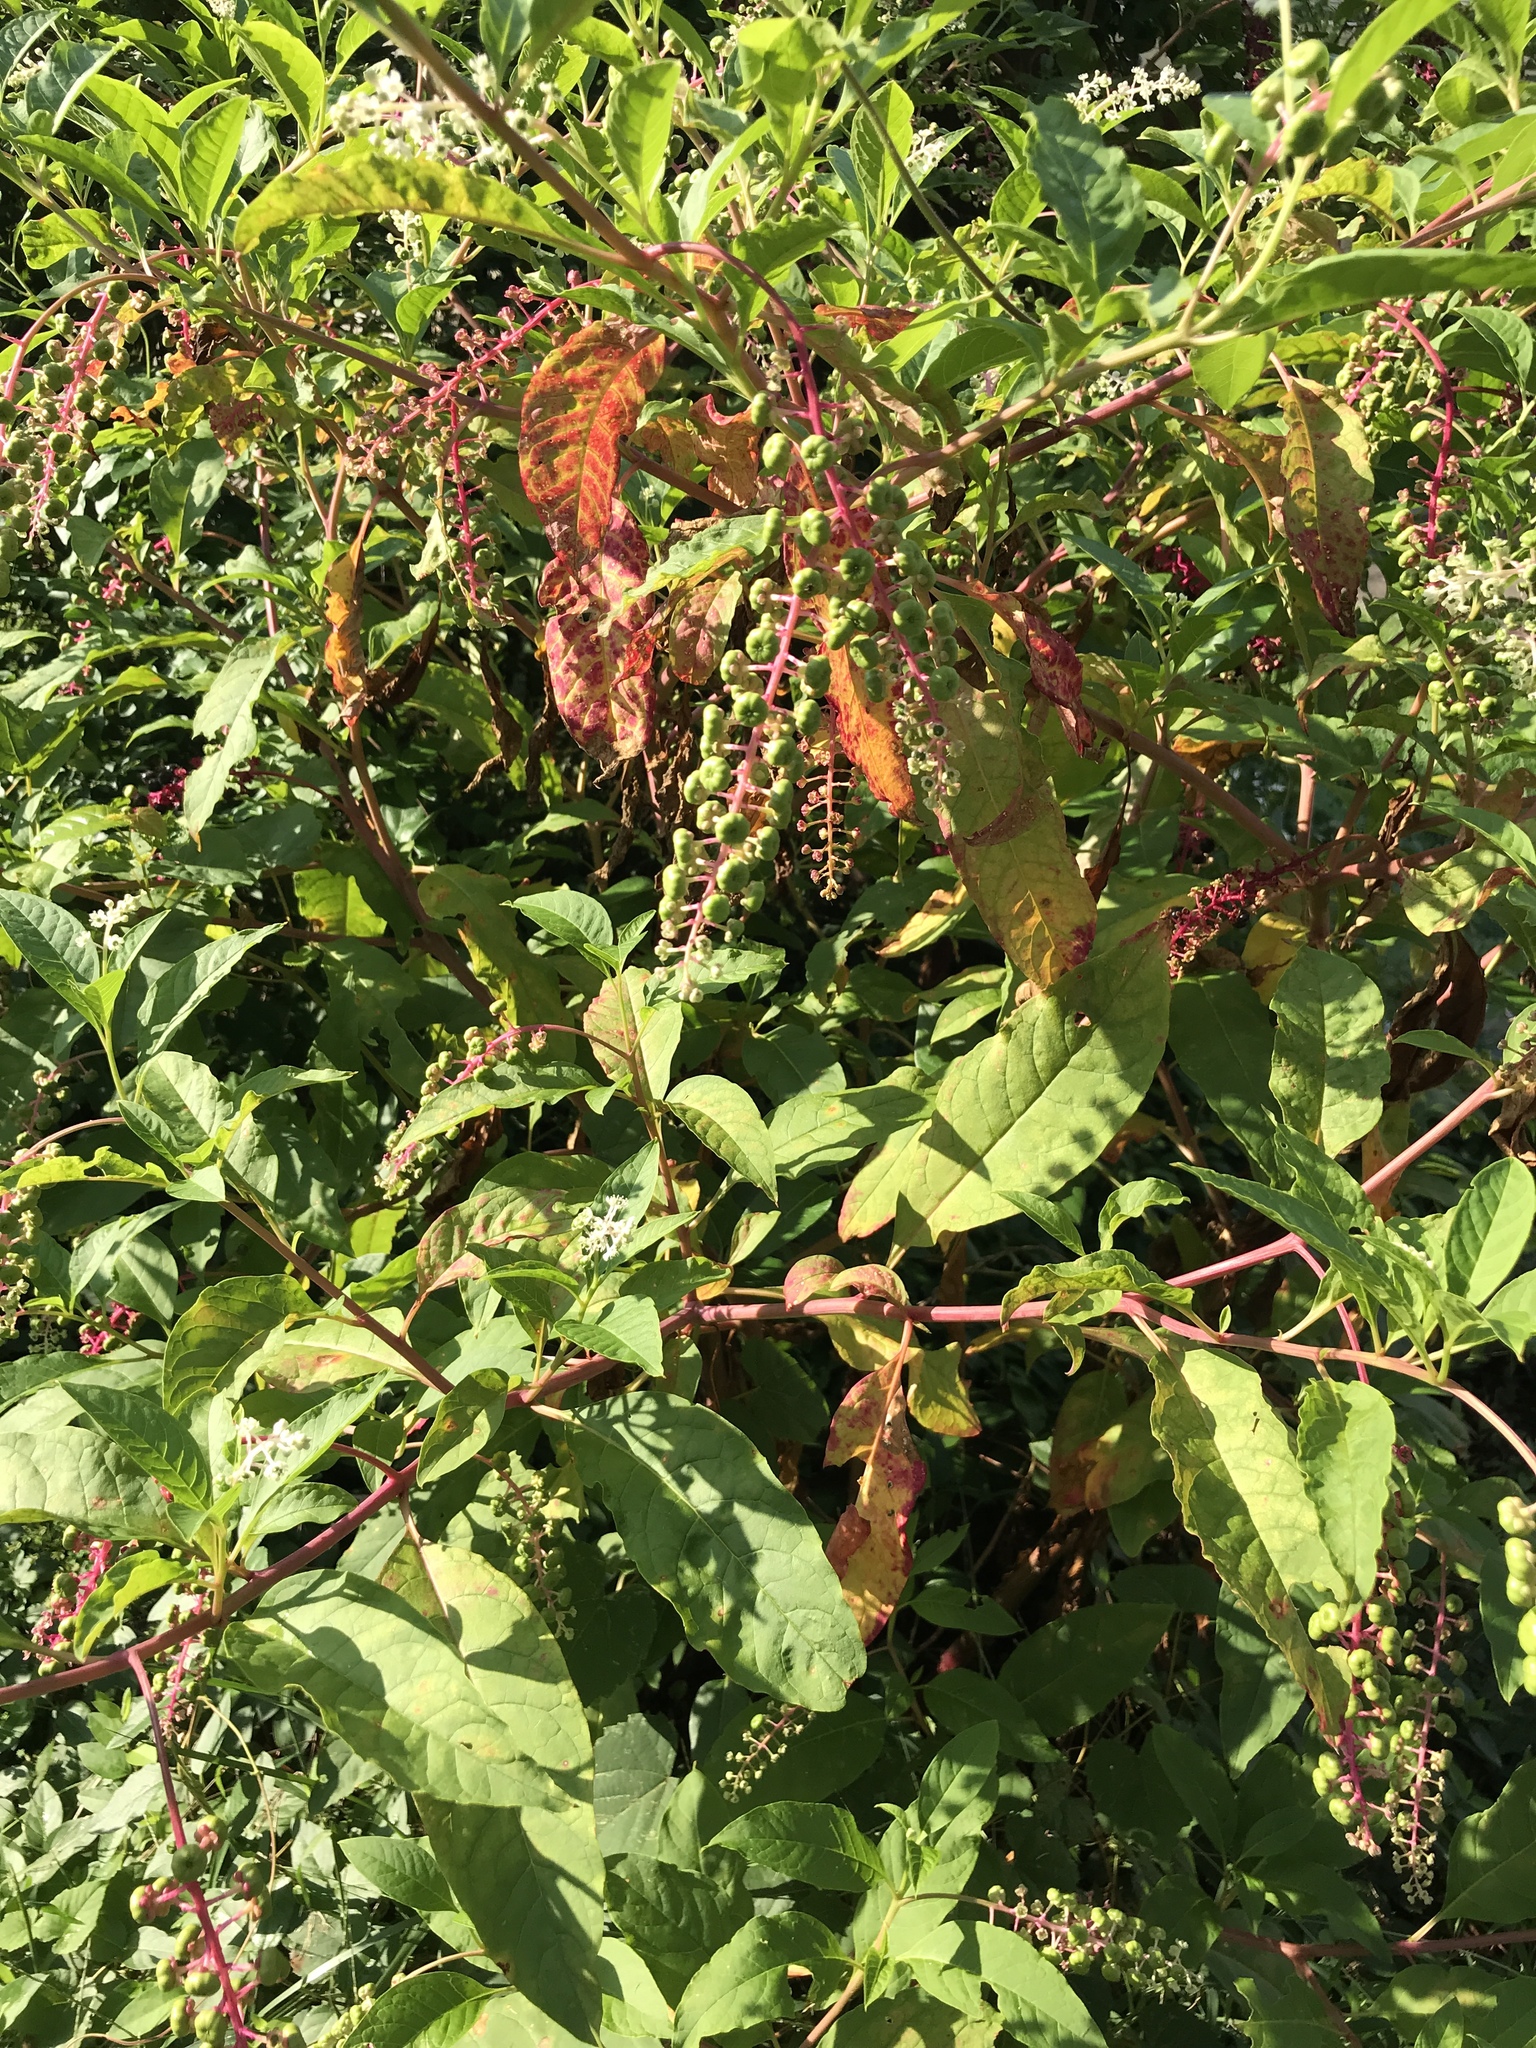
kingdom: Plantae
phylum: Tracheophyta
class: Magnoliopsida
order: Caryophyllales
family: Phytolaccaceae
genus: Phytolacca
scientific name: Phytolacca americana
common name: American pokeweed
